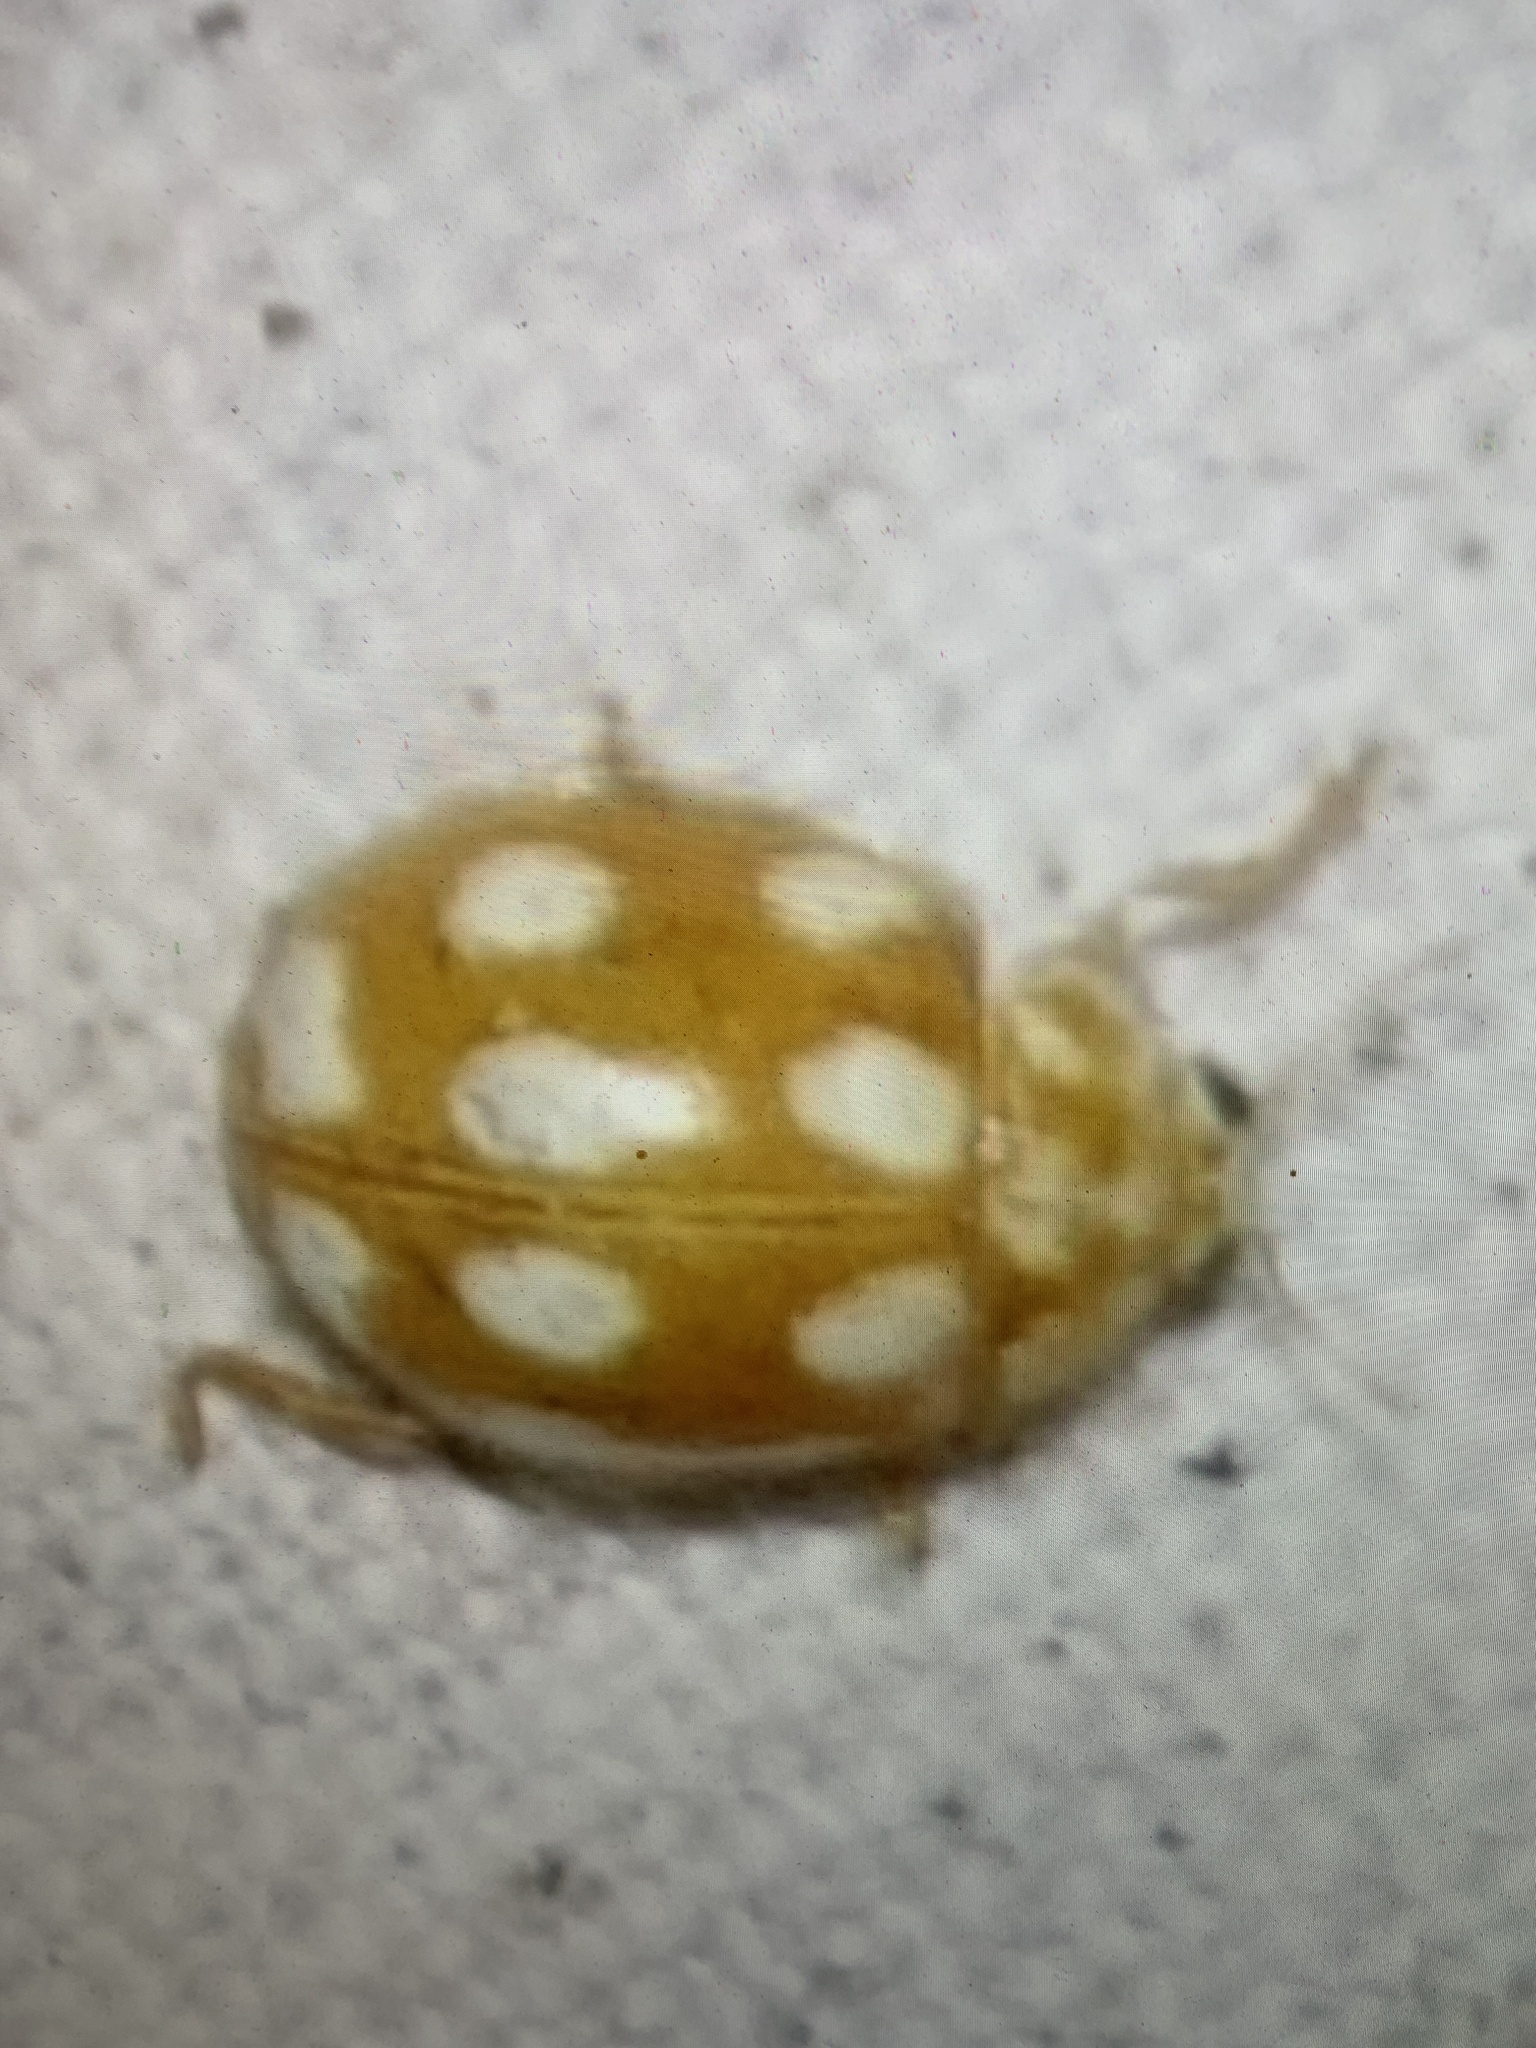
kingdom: Animalia
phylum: Arthropoda
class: Insecta
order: Coleoptera
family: Coccinellidae
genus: Calvia
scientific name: Calvia decemguttata
